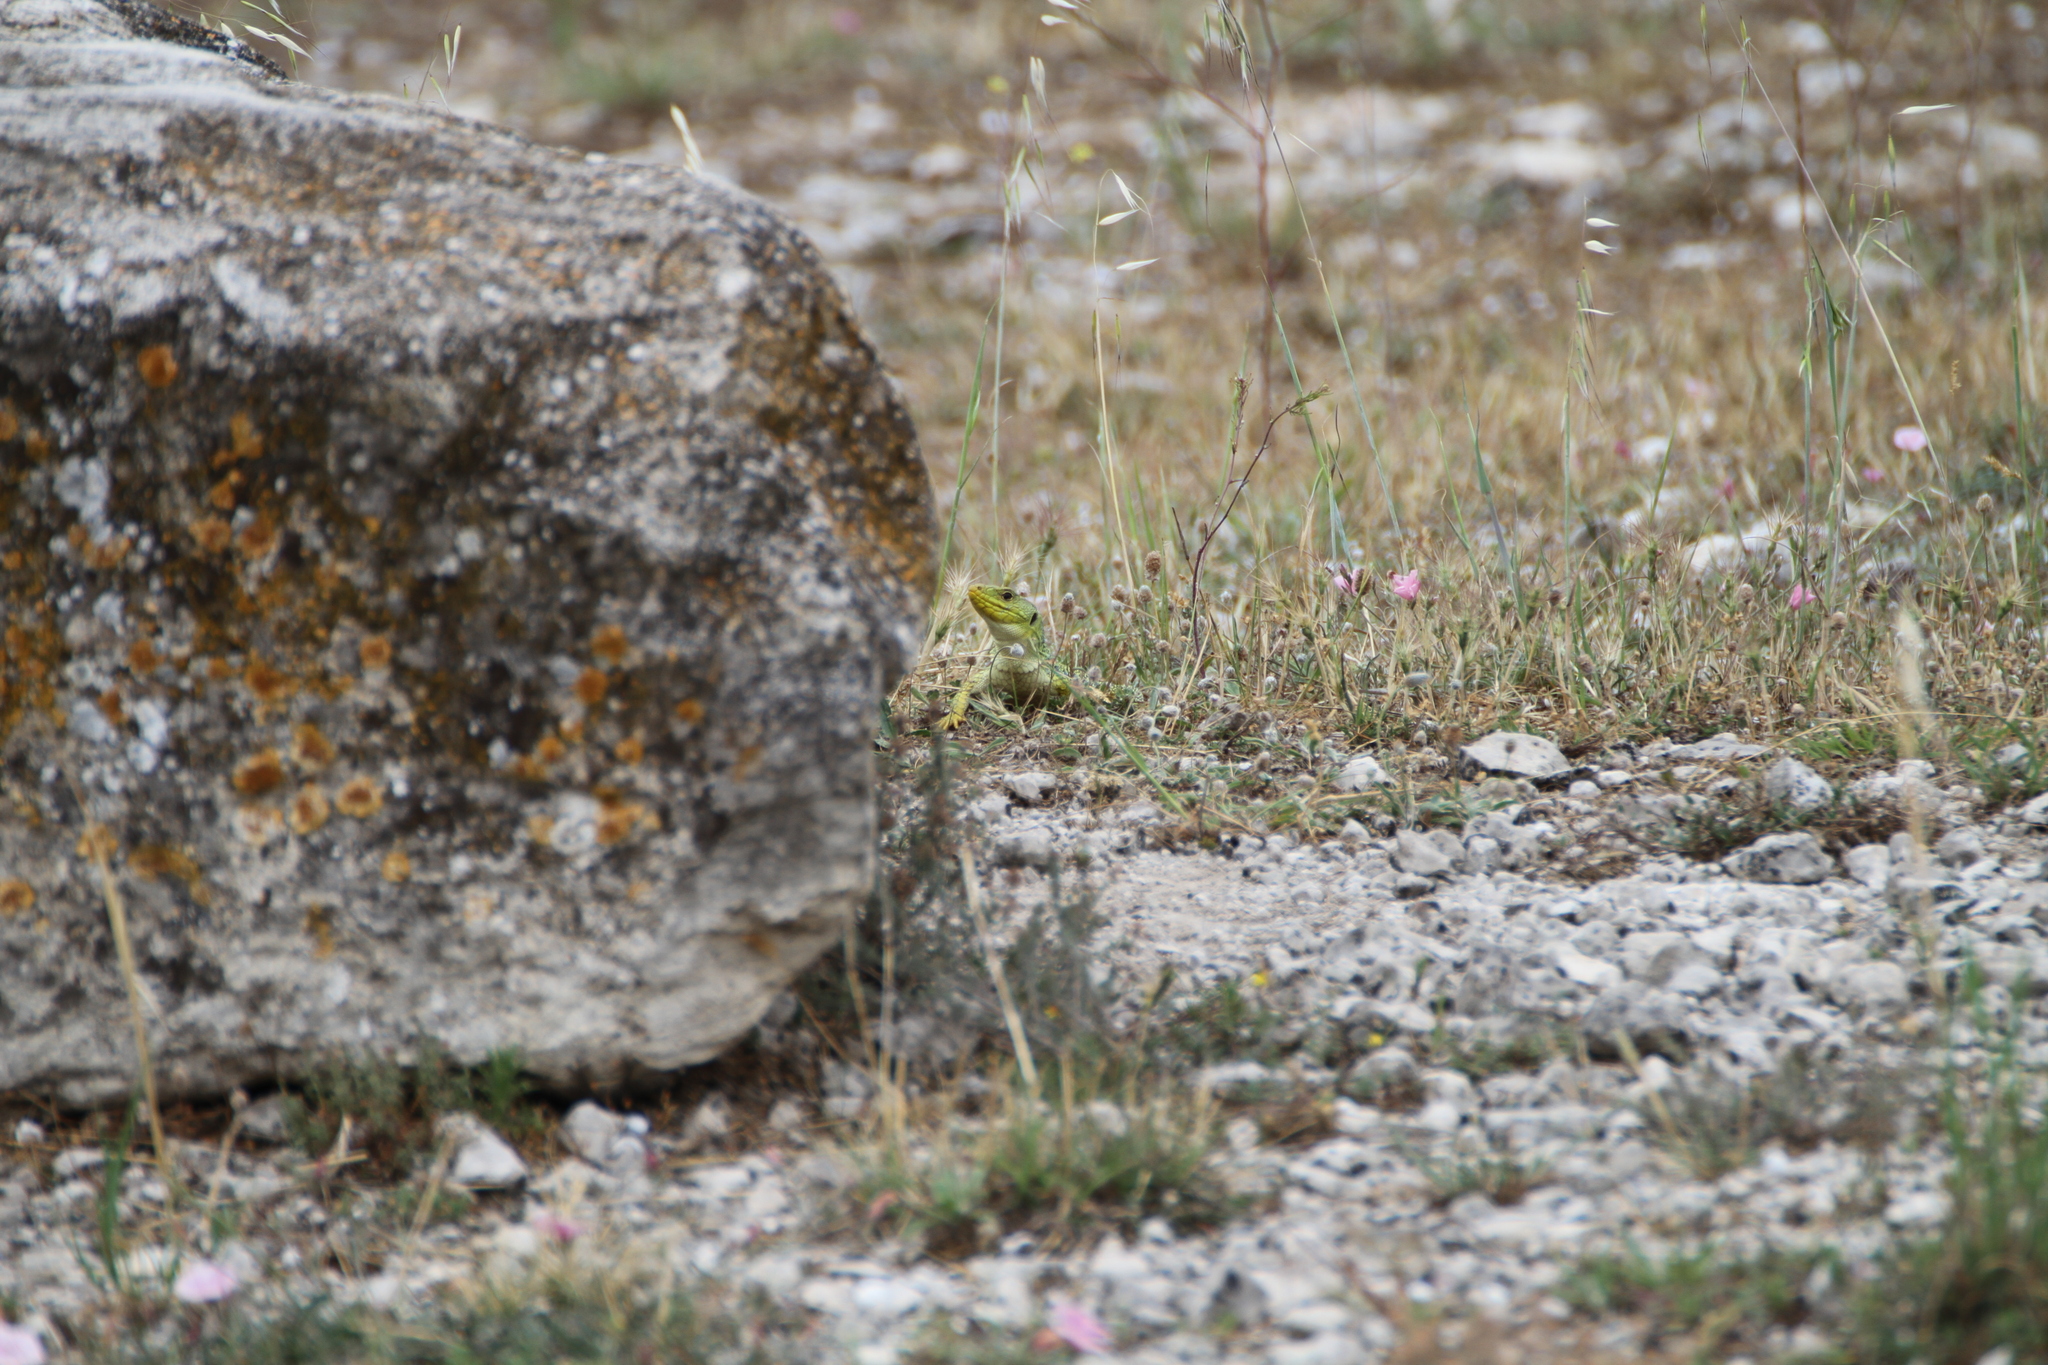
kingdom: Animalia
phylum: Chordata
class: Squamata
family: Lacertidae
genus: Timon
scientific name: Timon lepidus
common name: Ocellated lizard
